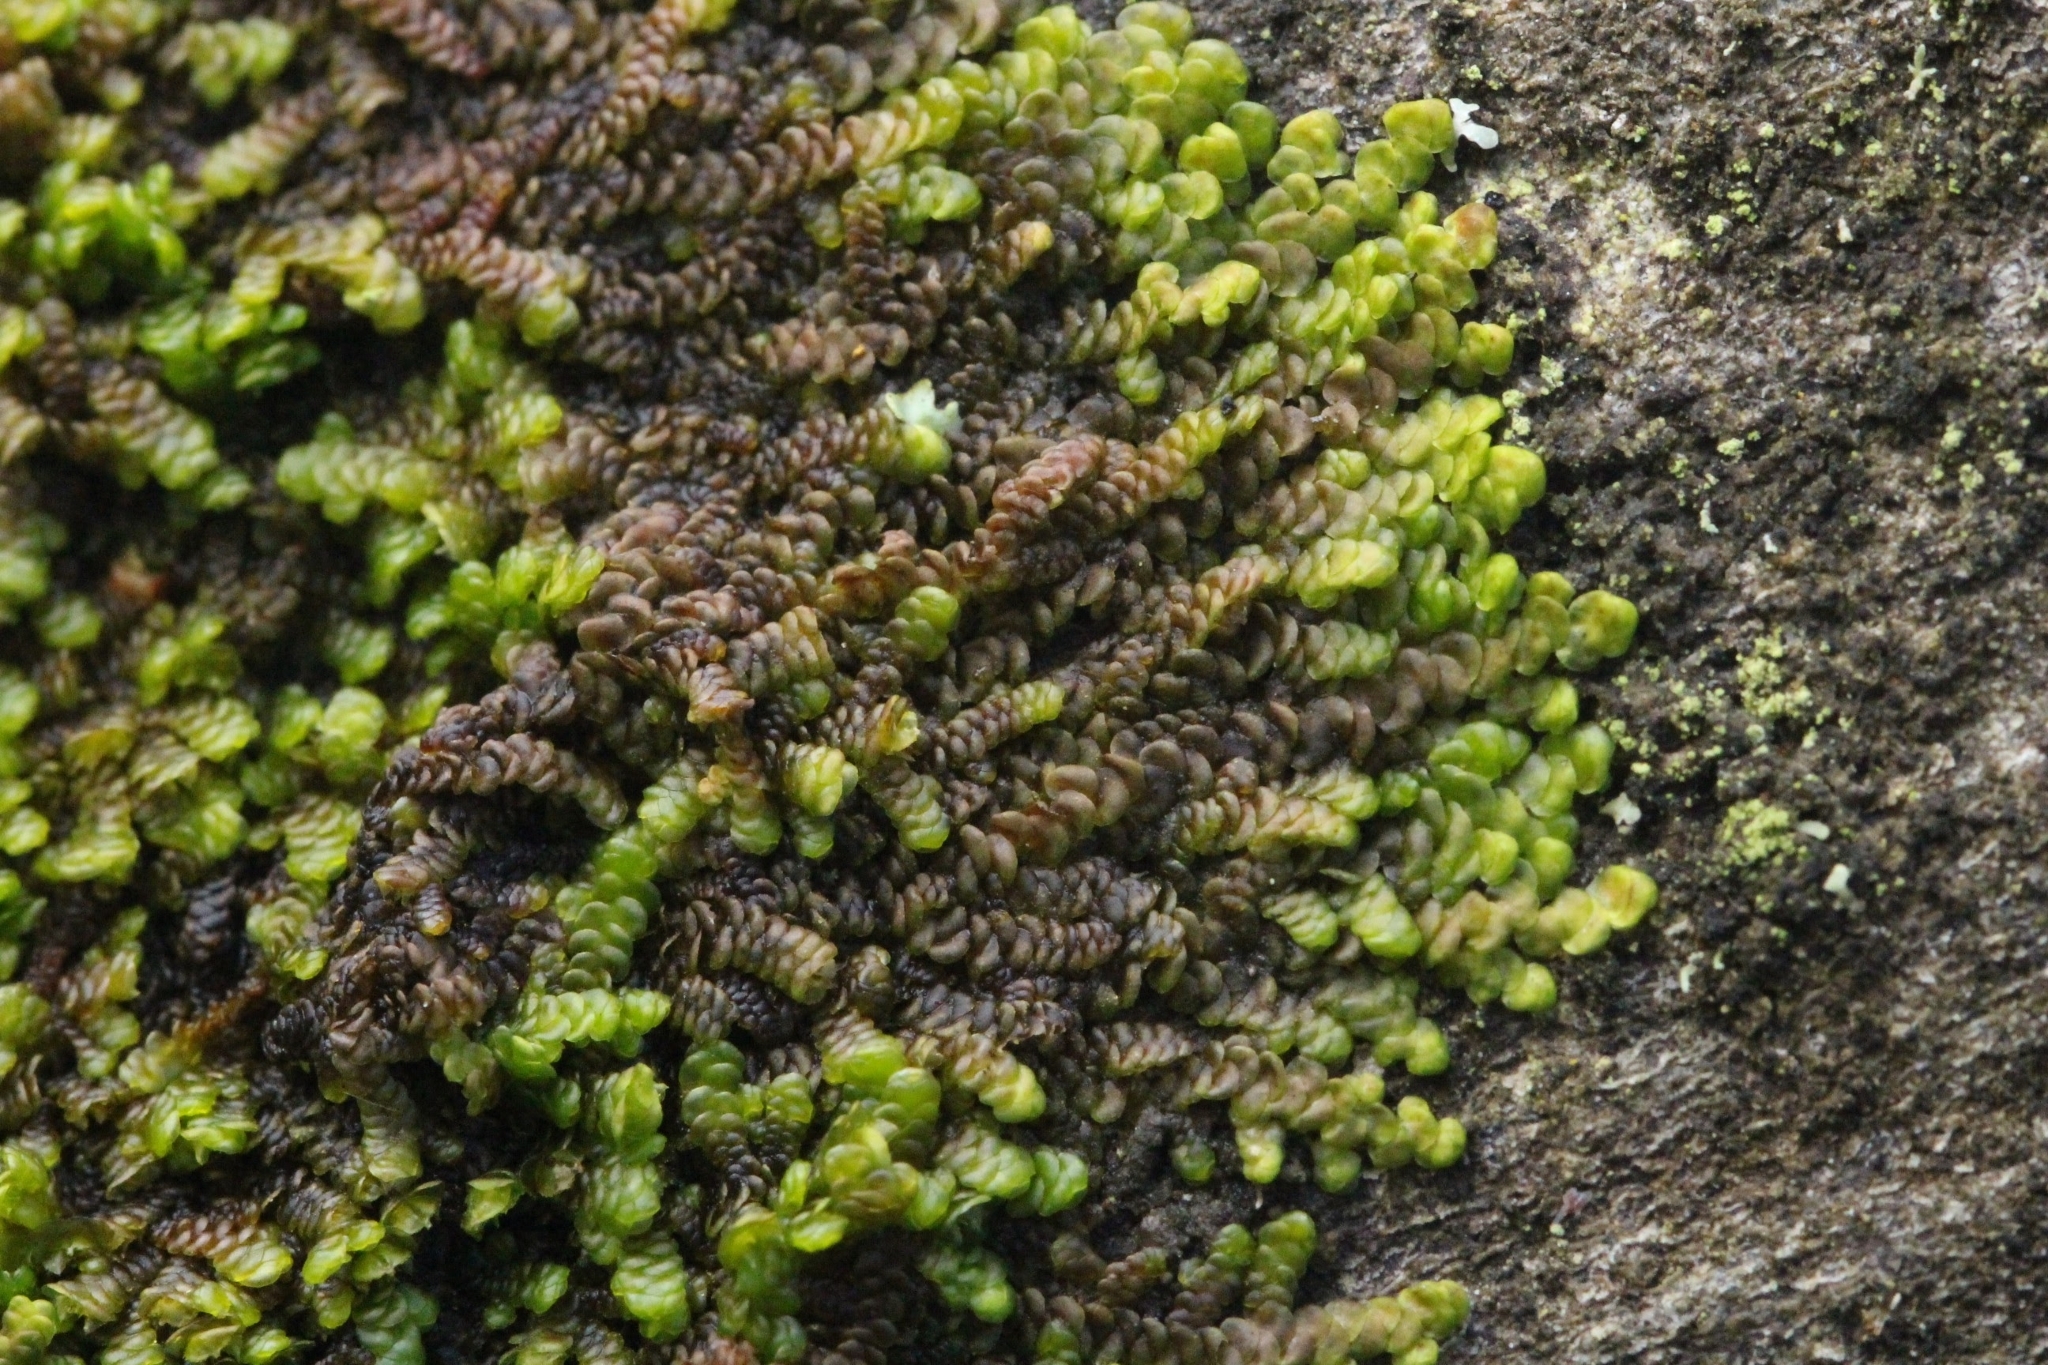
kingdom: Plantae
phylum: Marchantiophyta
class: Jungermanniopsida
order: Porellales
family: Frullaniaceae
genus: Frullania
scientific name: Frullania dilatata
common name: Dilated scalewort
